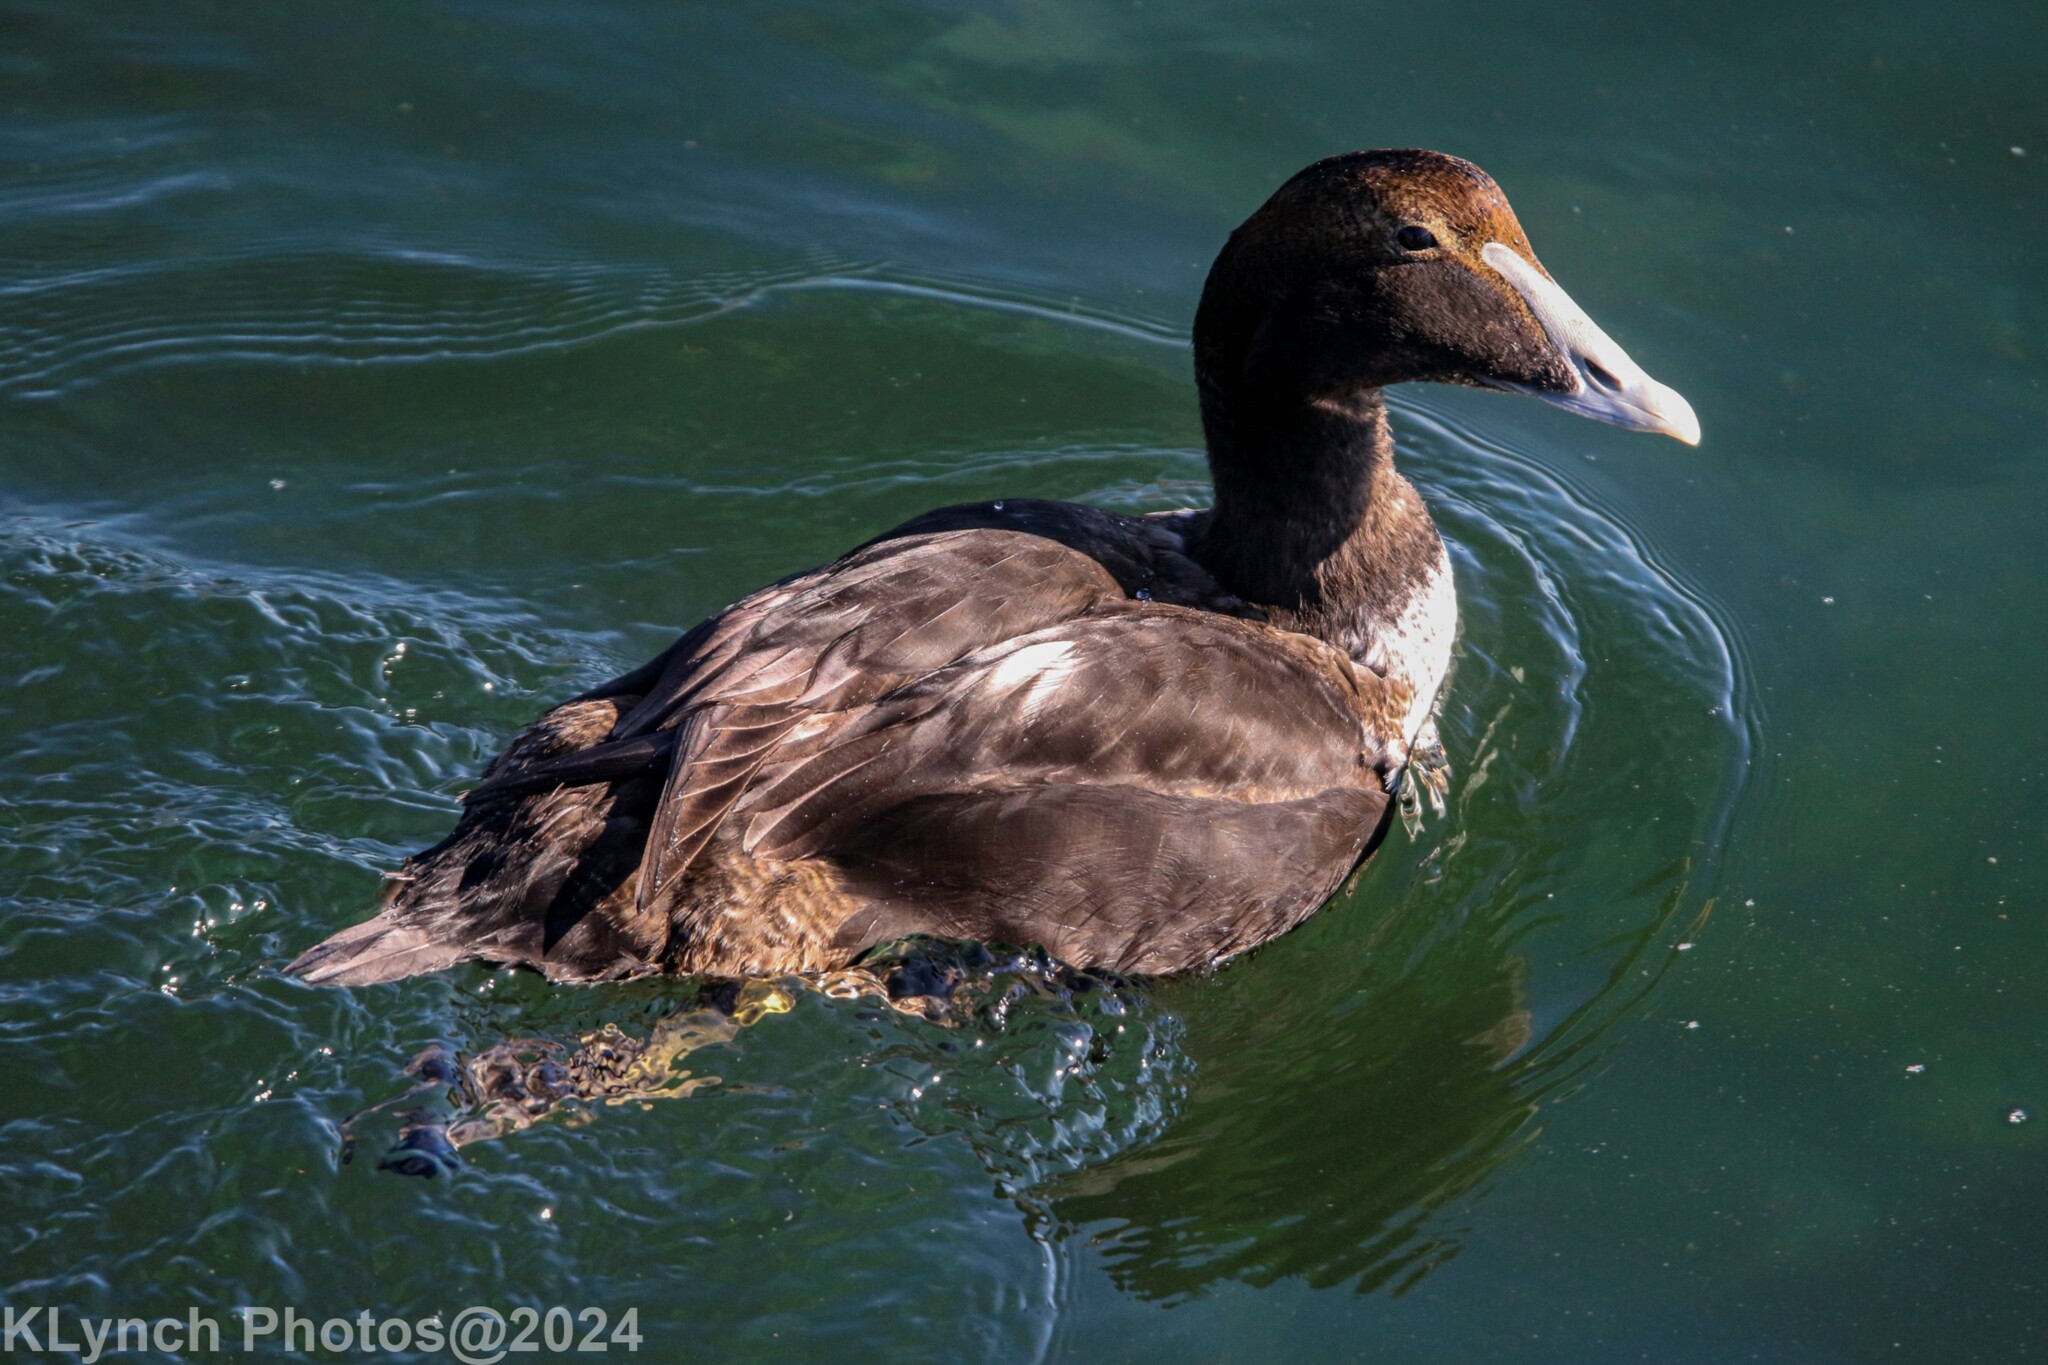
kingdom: Animalia
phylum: Chordata
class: Aves
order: Anseriformes
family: Anatidae
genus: Somateria
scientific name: Somateria mollissima
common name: Common eider
